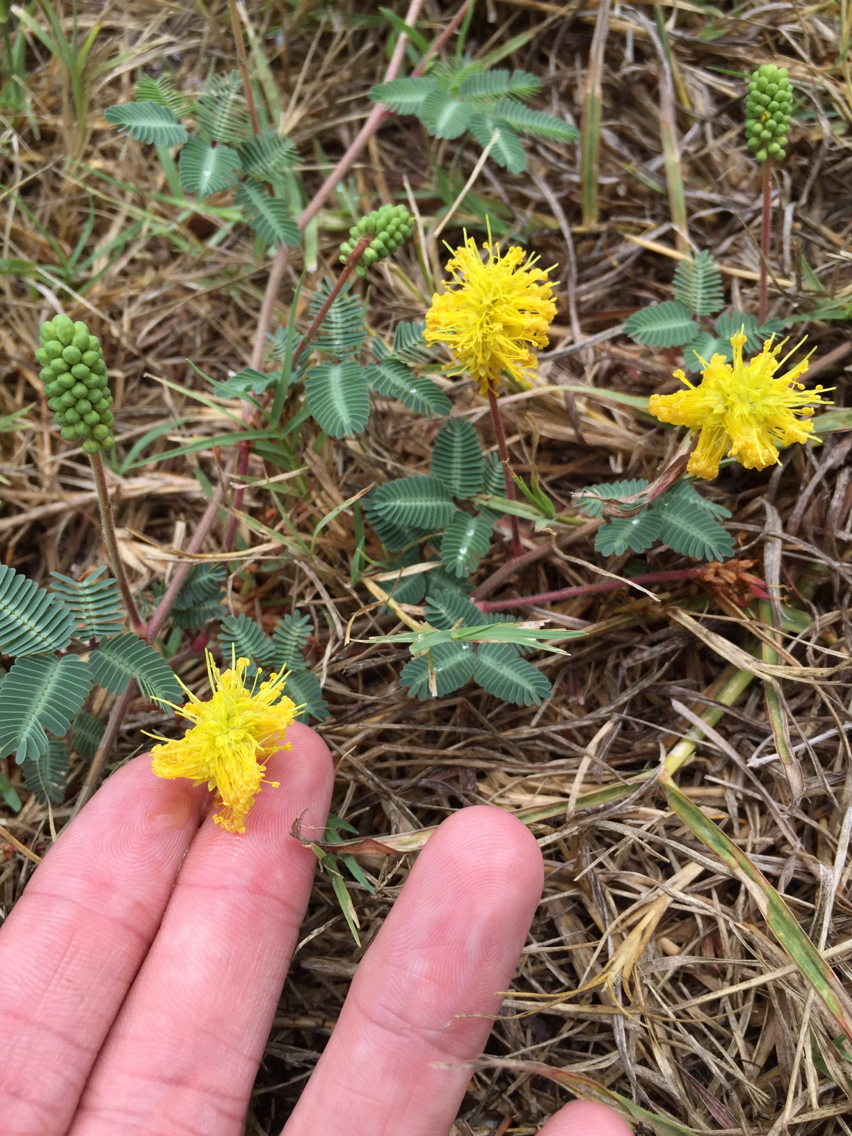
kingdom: Plantae
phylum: Tracheophyta
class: Magnoliopsida
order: Fabales
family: Fabaceae
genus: Neptunia
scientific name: Neptunia lutea
